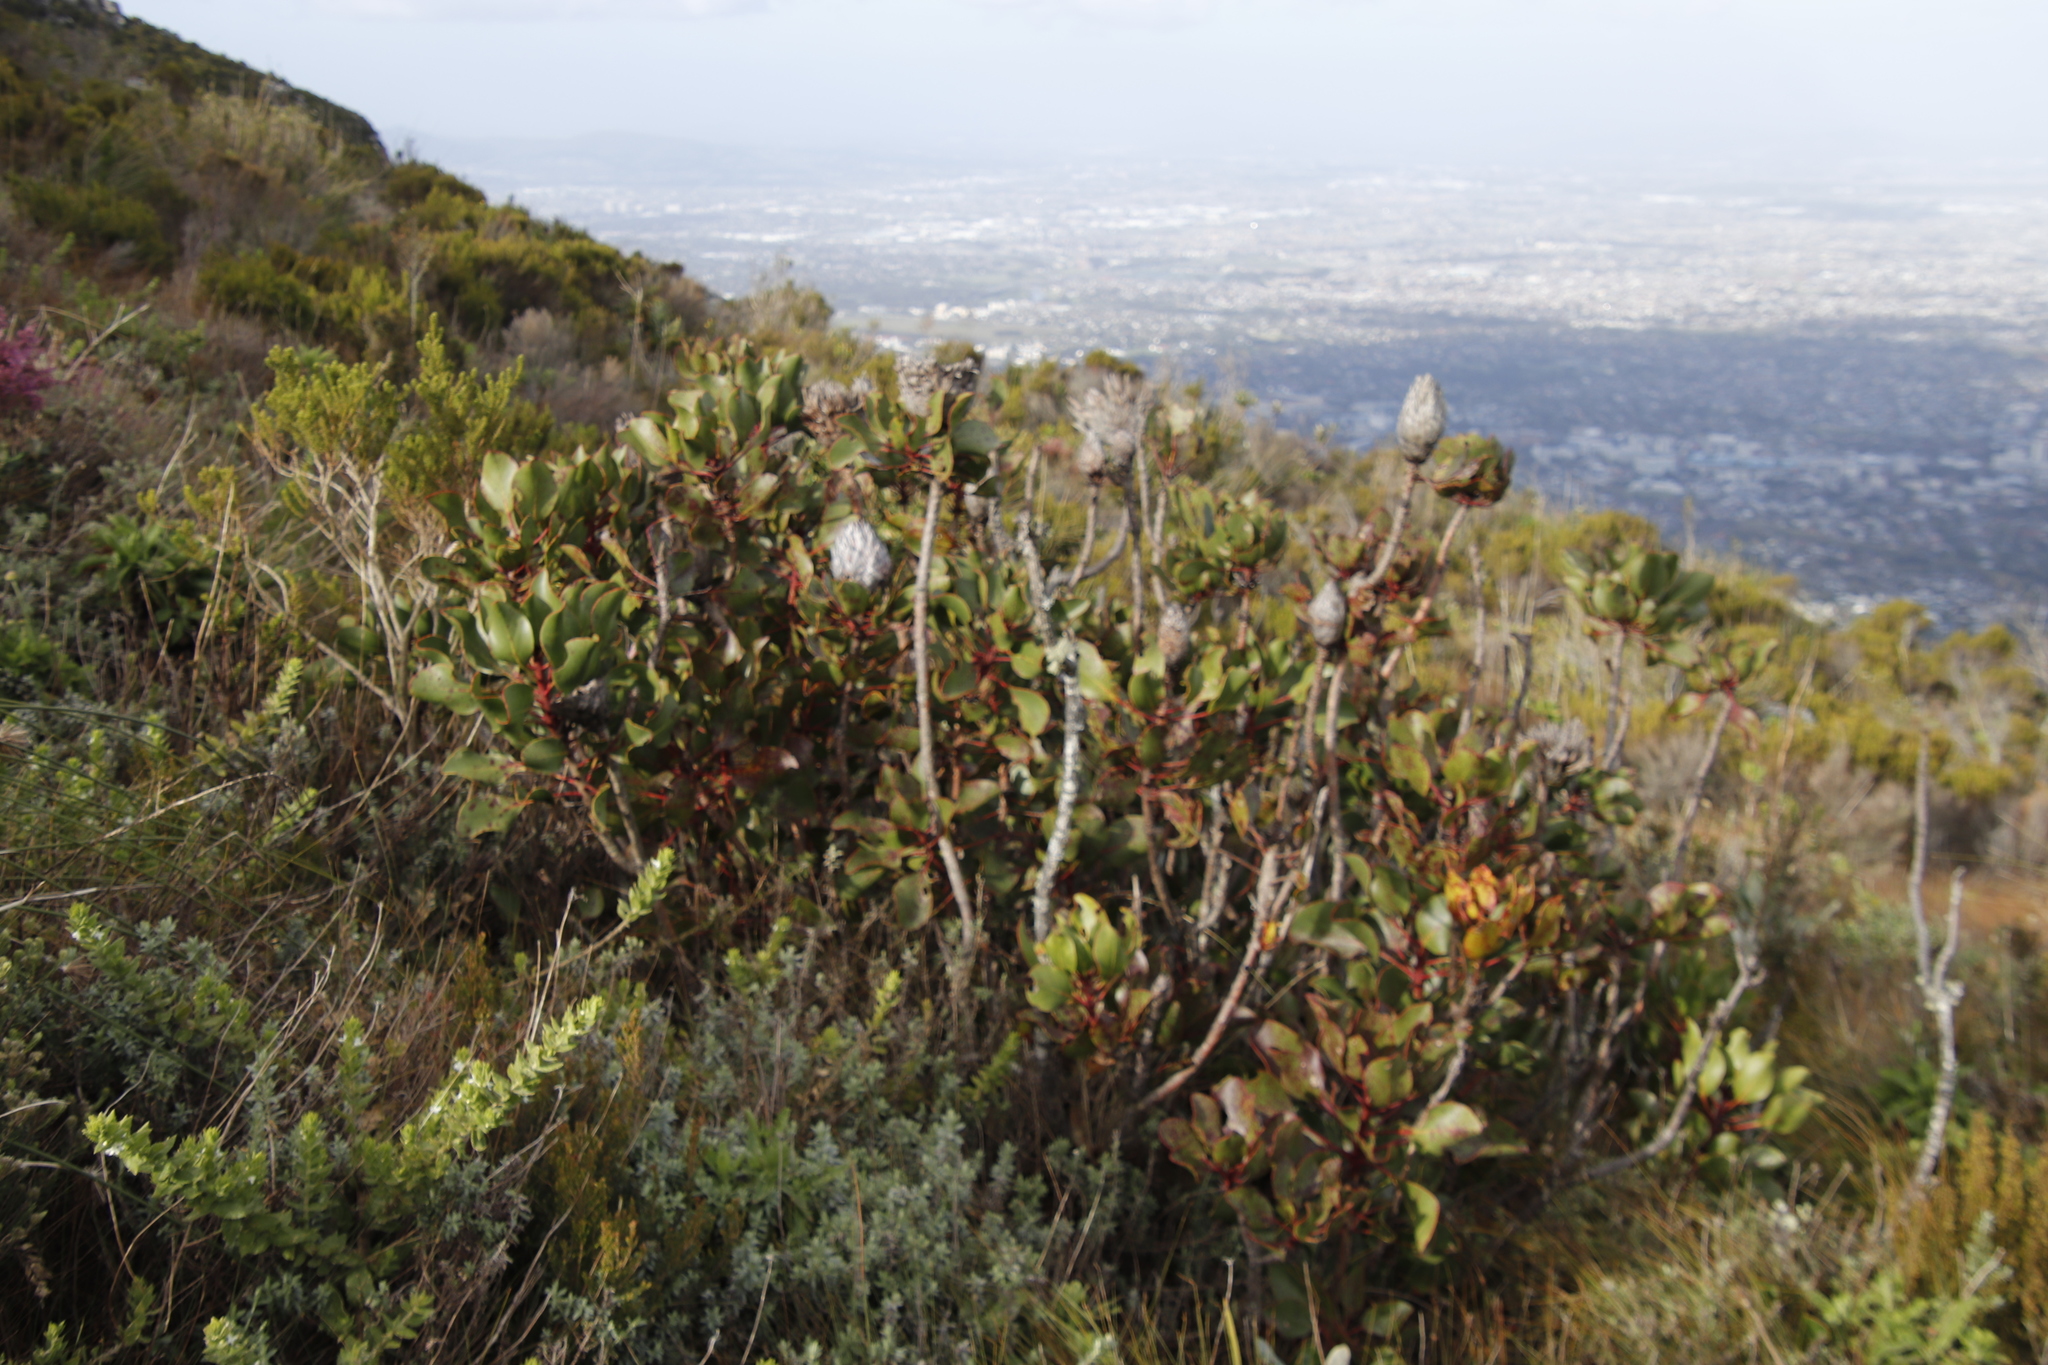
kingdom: Plantae
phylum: Tracheophyta
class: Magnoliopsida
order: Proteales
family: Proteaceae
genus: Protea
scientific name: Protea cynaroides
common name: King protea
